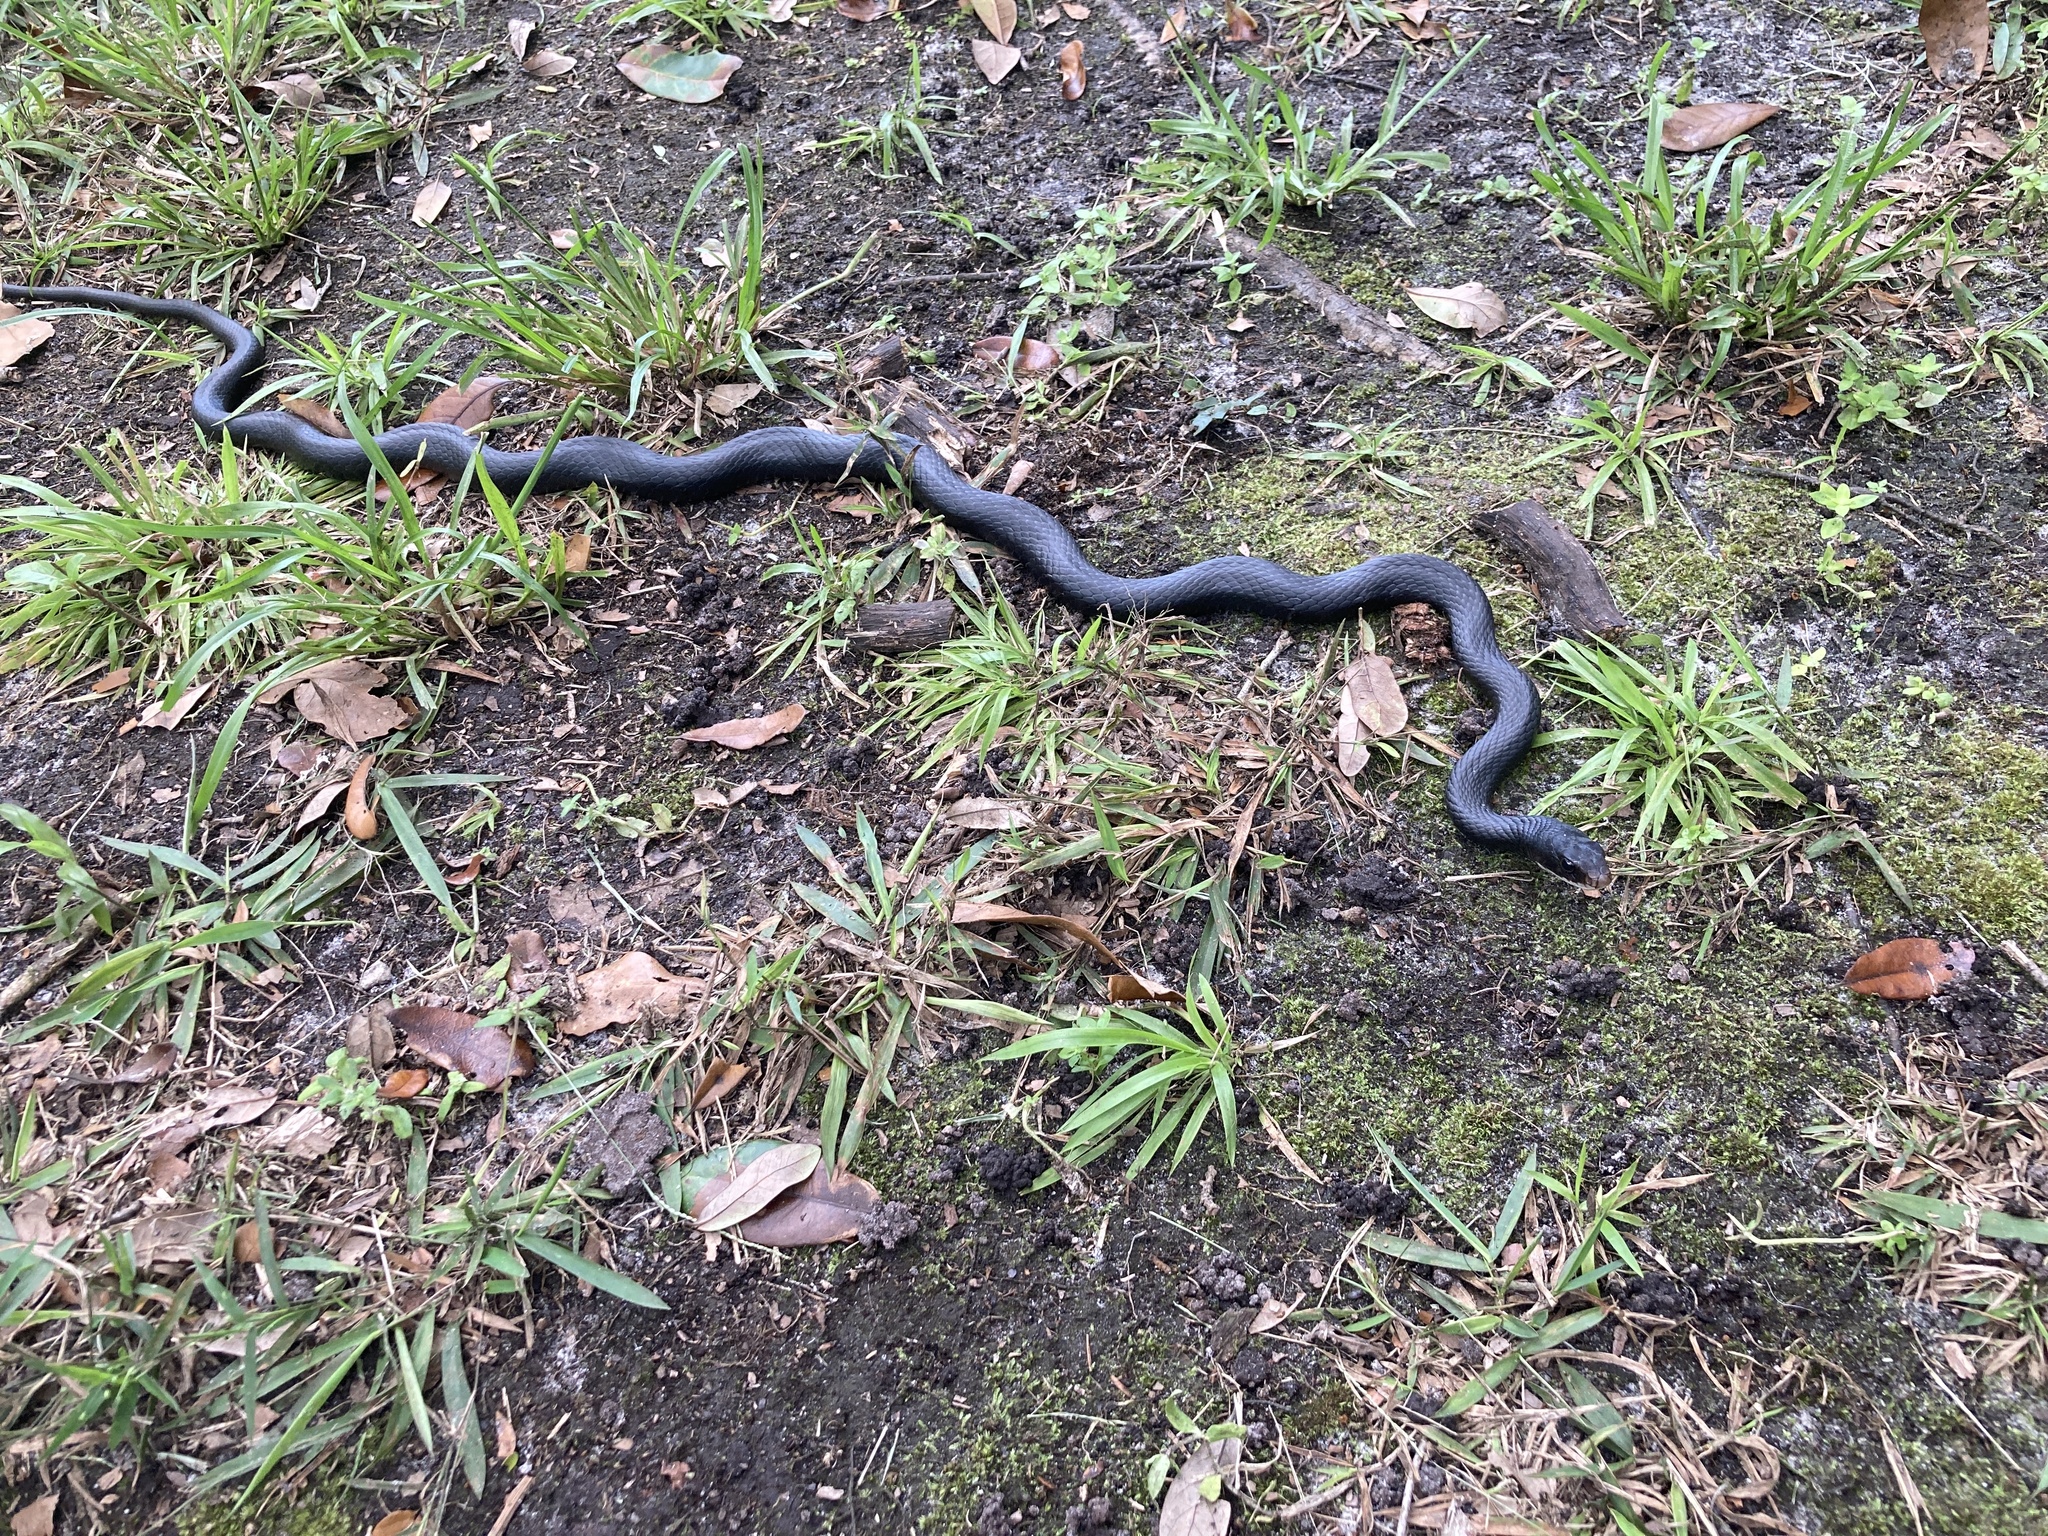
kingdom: Animalia
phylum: Chordata
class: Squamata
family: Colubridae
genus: Coluber
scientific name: Coluber constrictor
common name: Eastern racer
